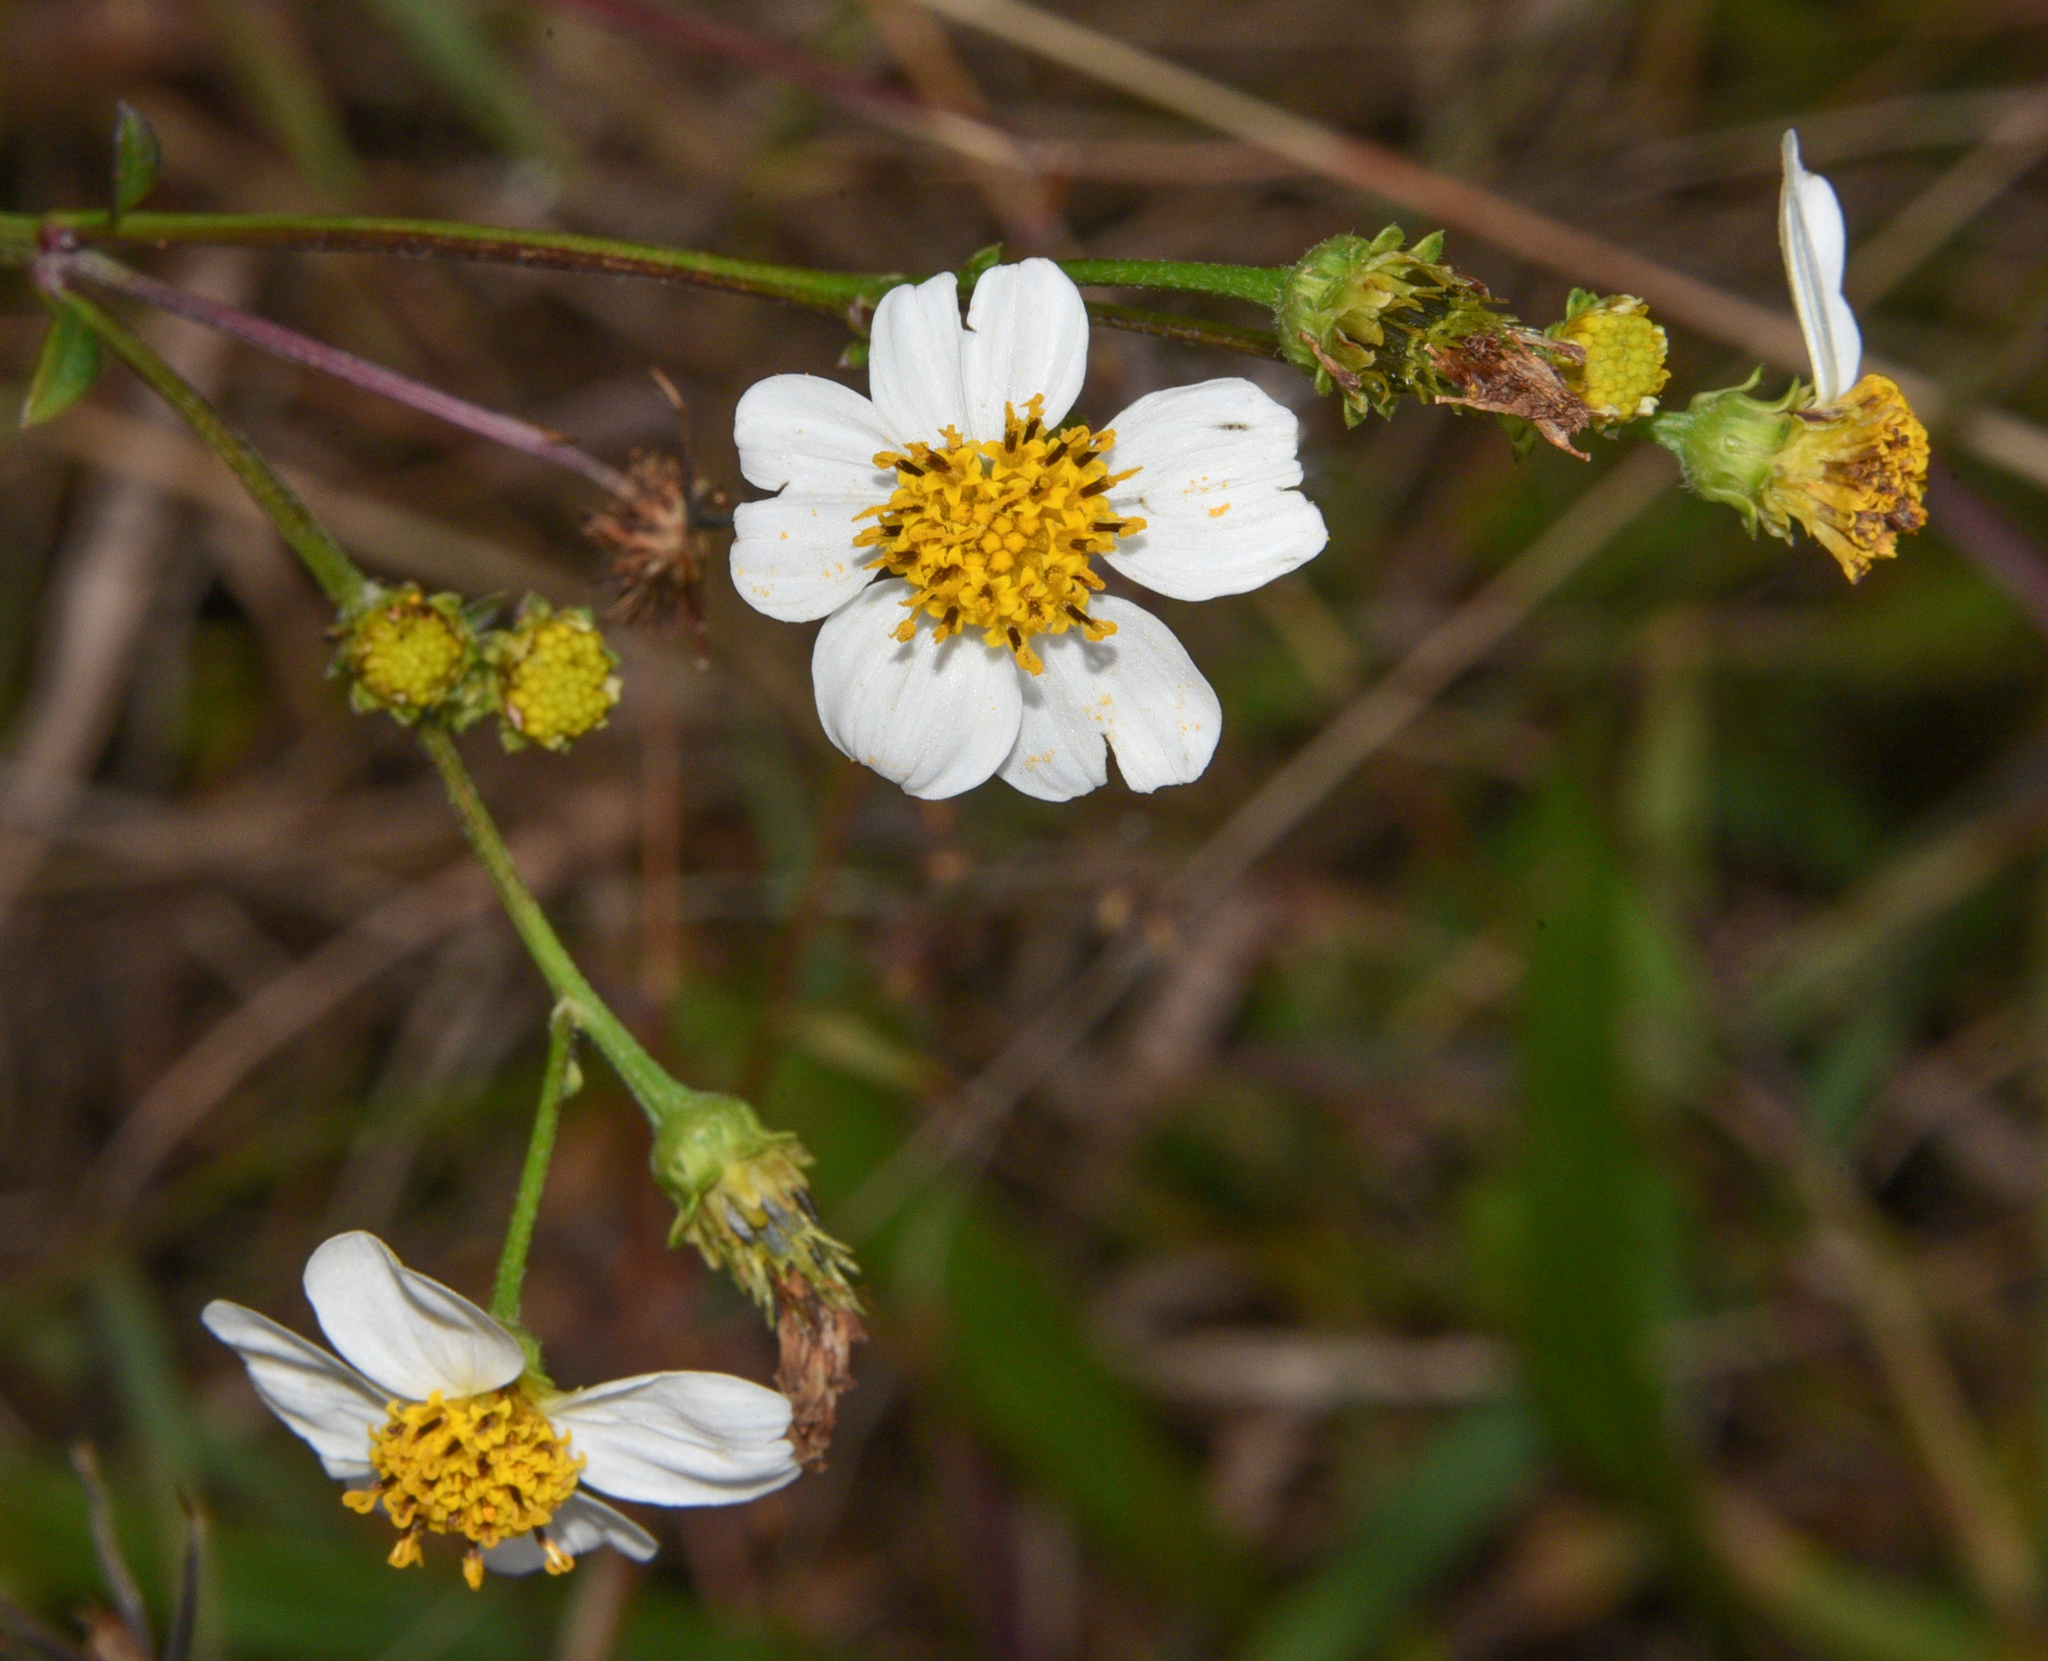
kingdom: Plantae
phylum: Tracheophyta
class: Magnoliopsida
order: Asterales
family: Asteraceae
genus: Bidens
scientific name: Bidens alba
